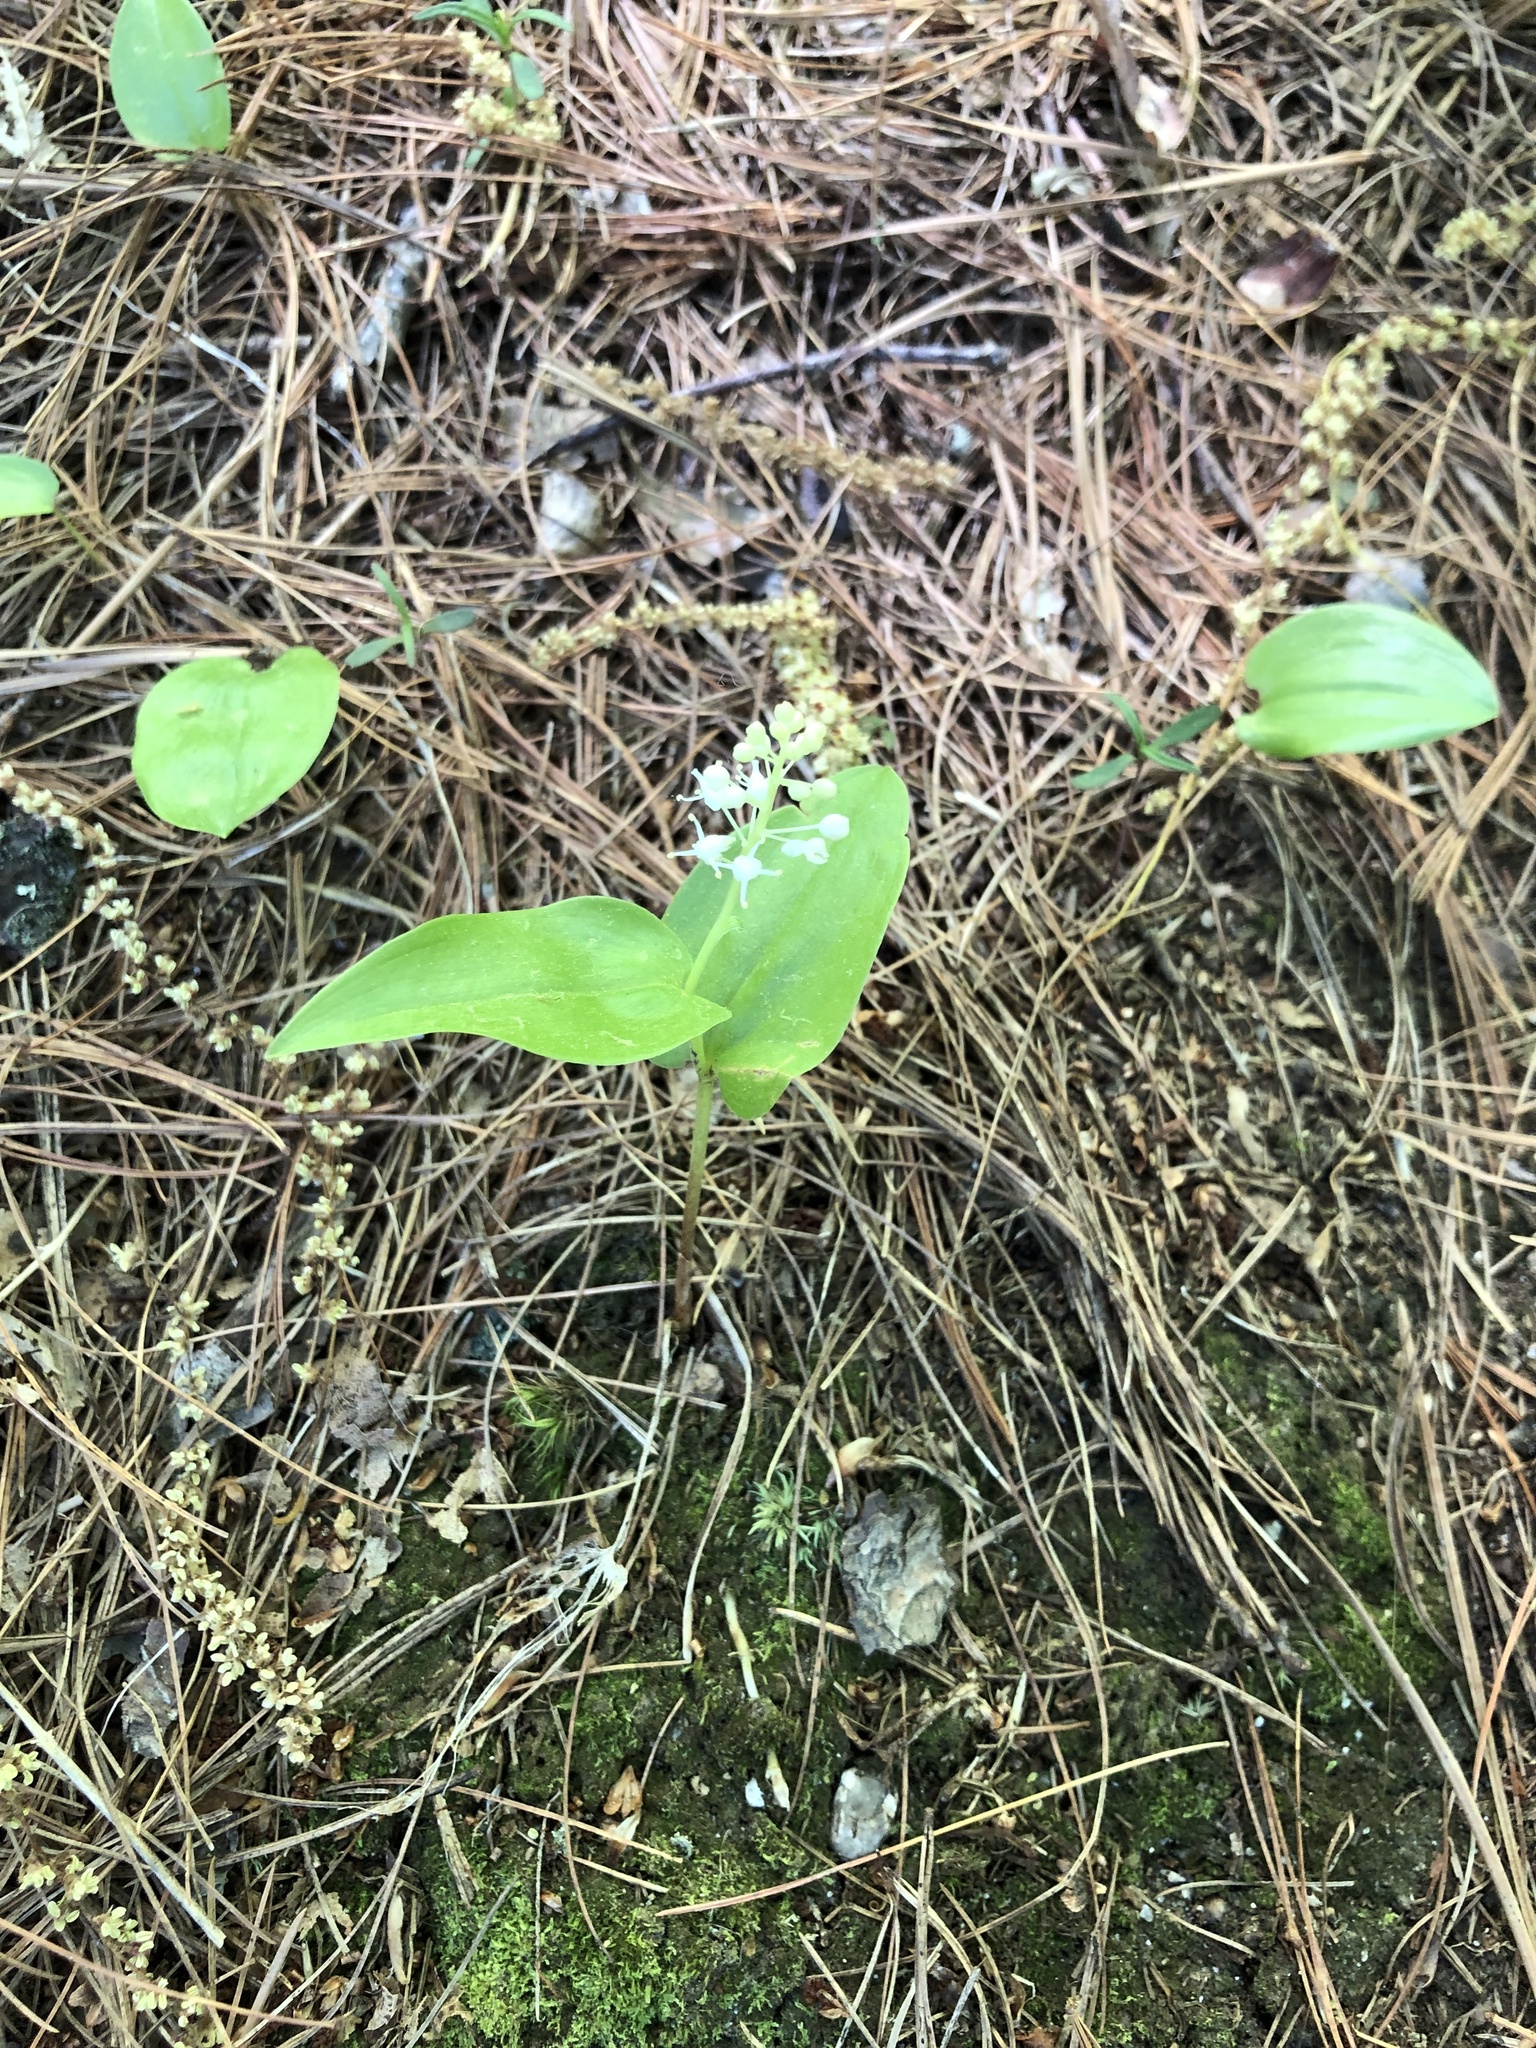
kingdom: Plantae
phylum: Tracheophyta
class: Liliopsida
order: Asparagales
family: Asparagaceae
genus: Maianthemum
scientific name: Maianthemum canadense
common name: False lily-of-the-valley
